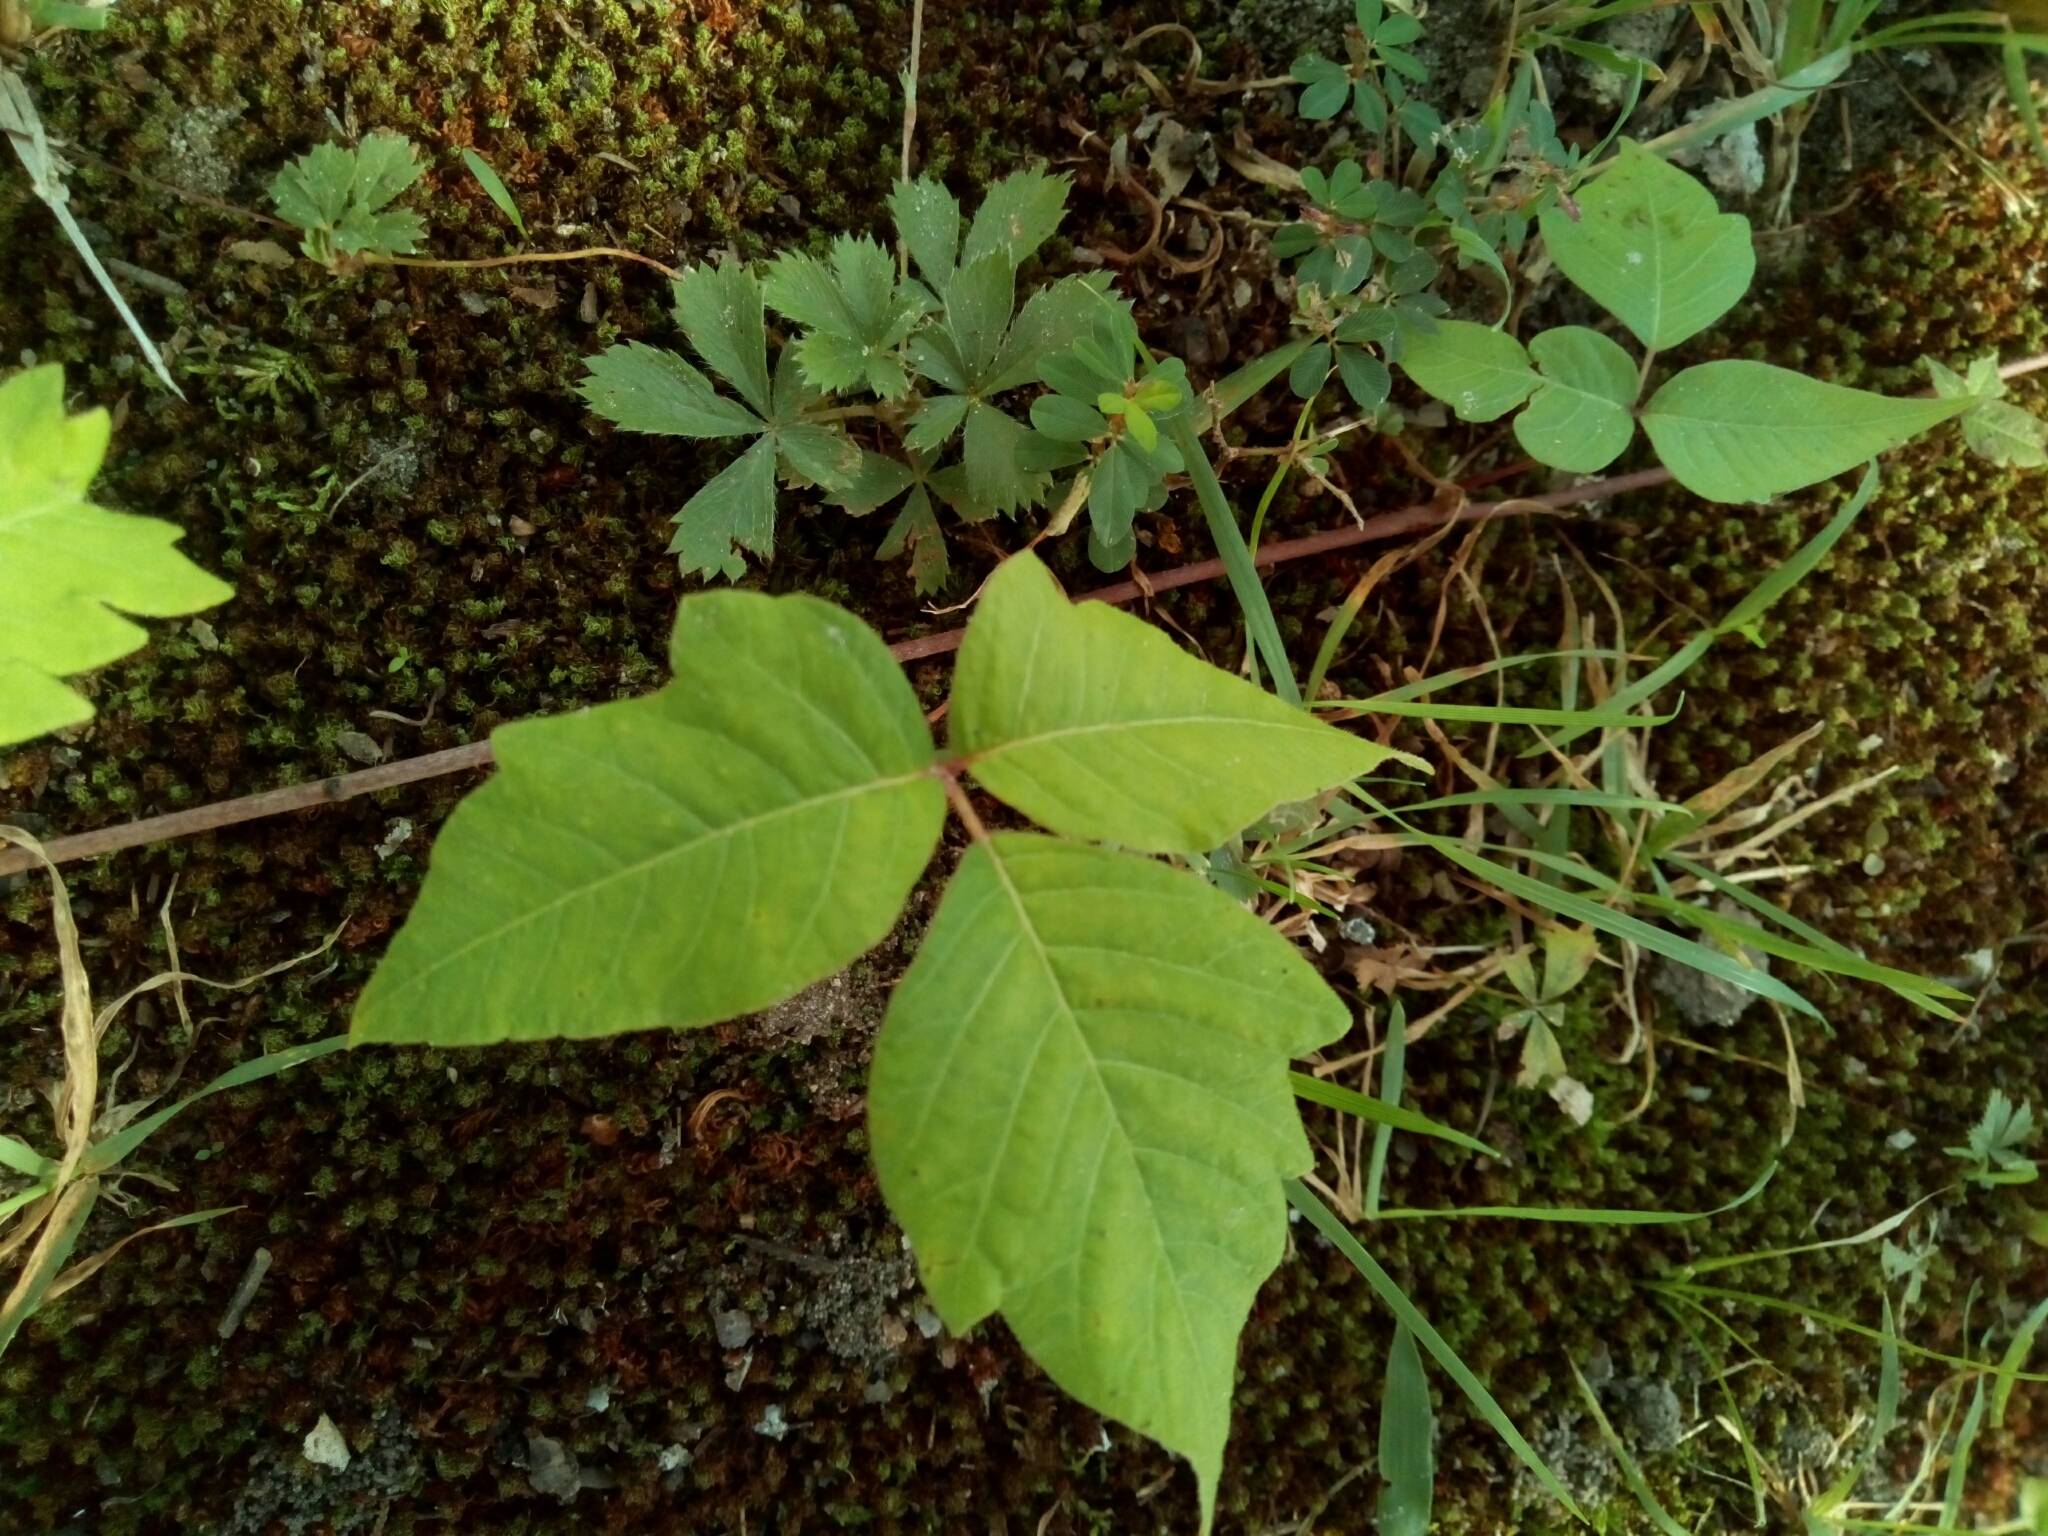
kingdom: Plantae
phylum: Tracheophyta
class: Magnoliopsida
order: Sapindales
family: Anacardiaceae
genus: Toxicodendron
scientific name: Toxicodendron radicans
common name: Poison ivy
